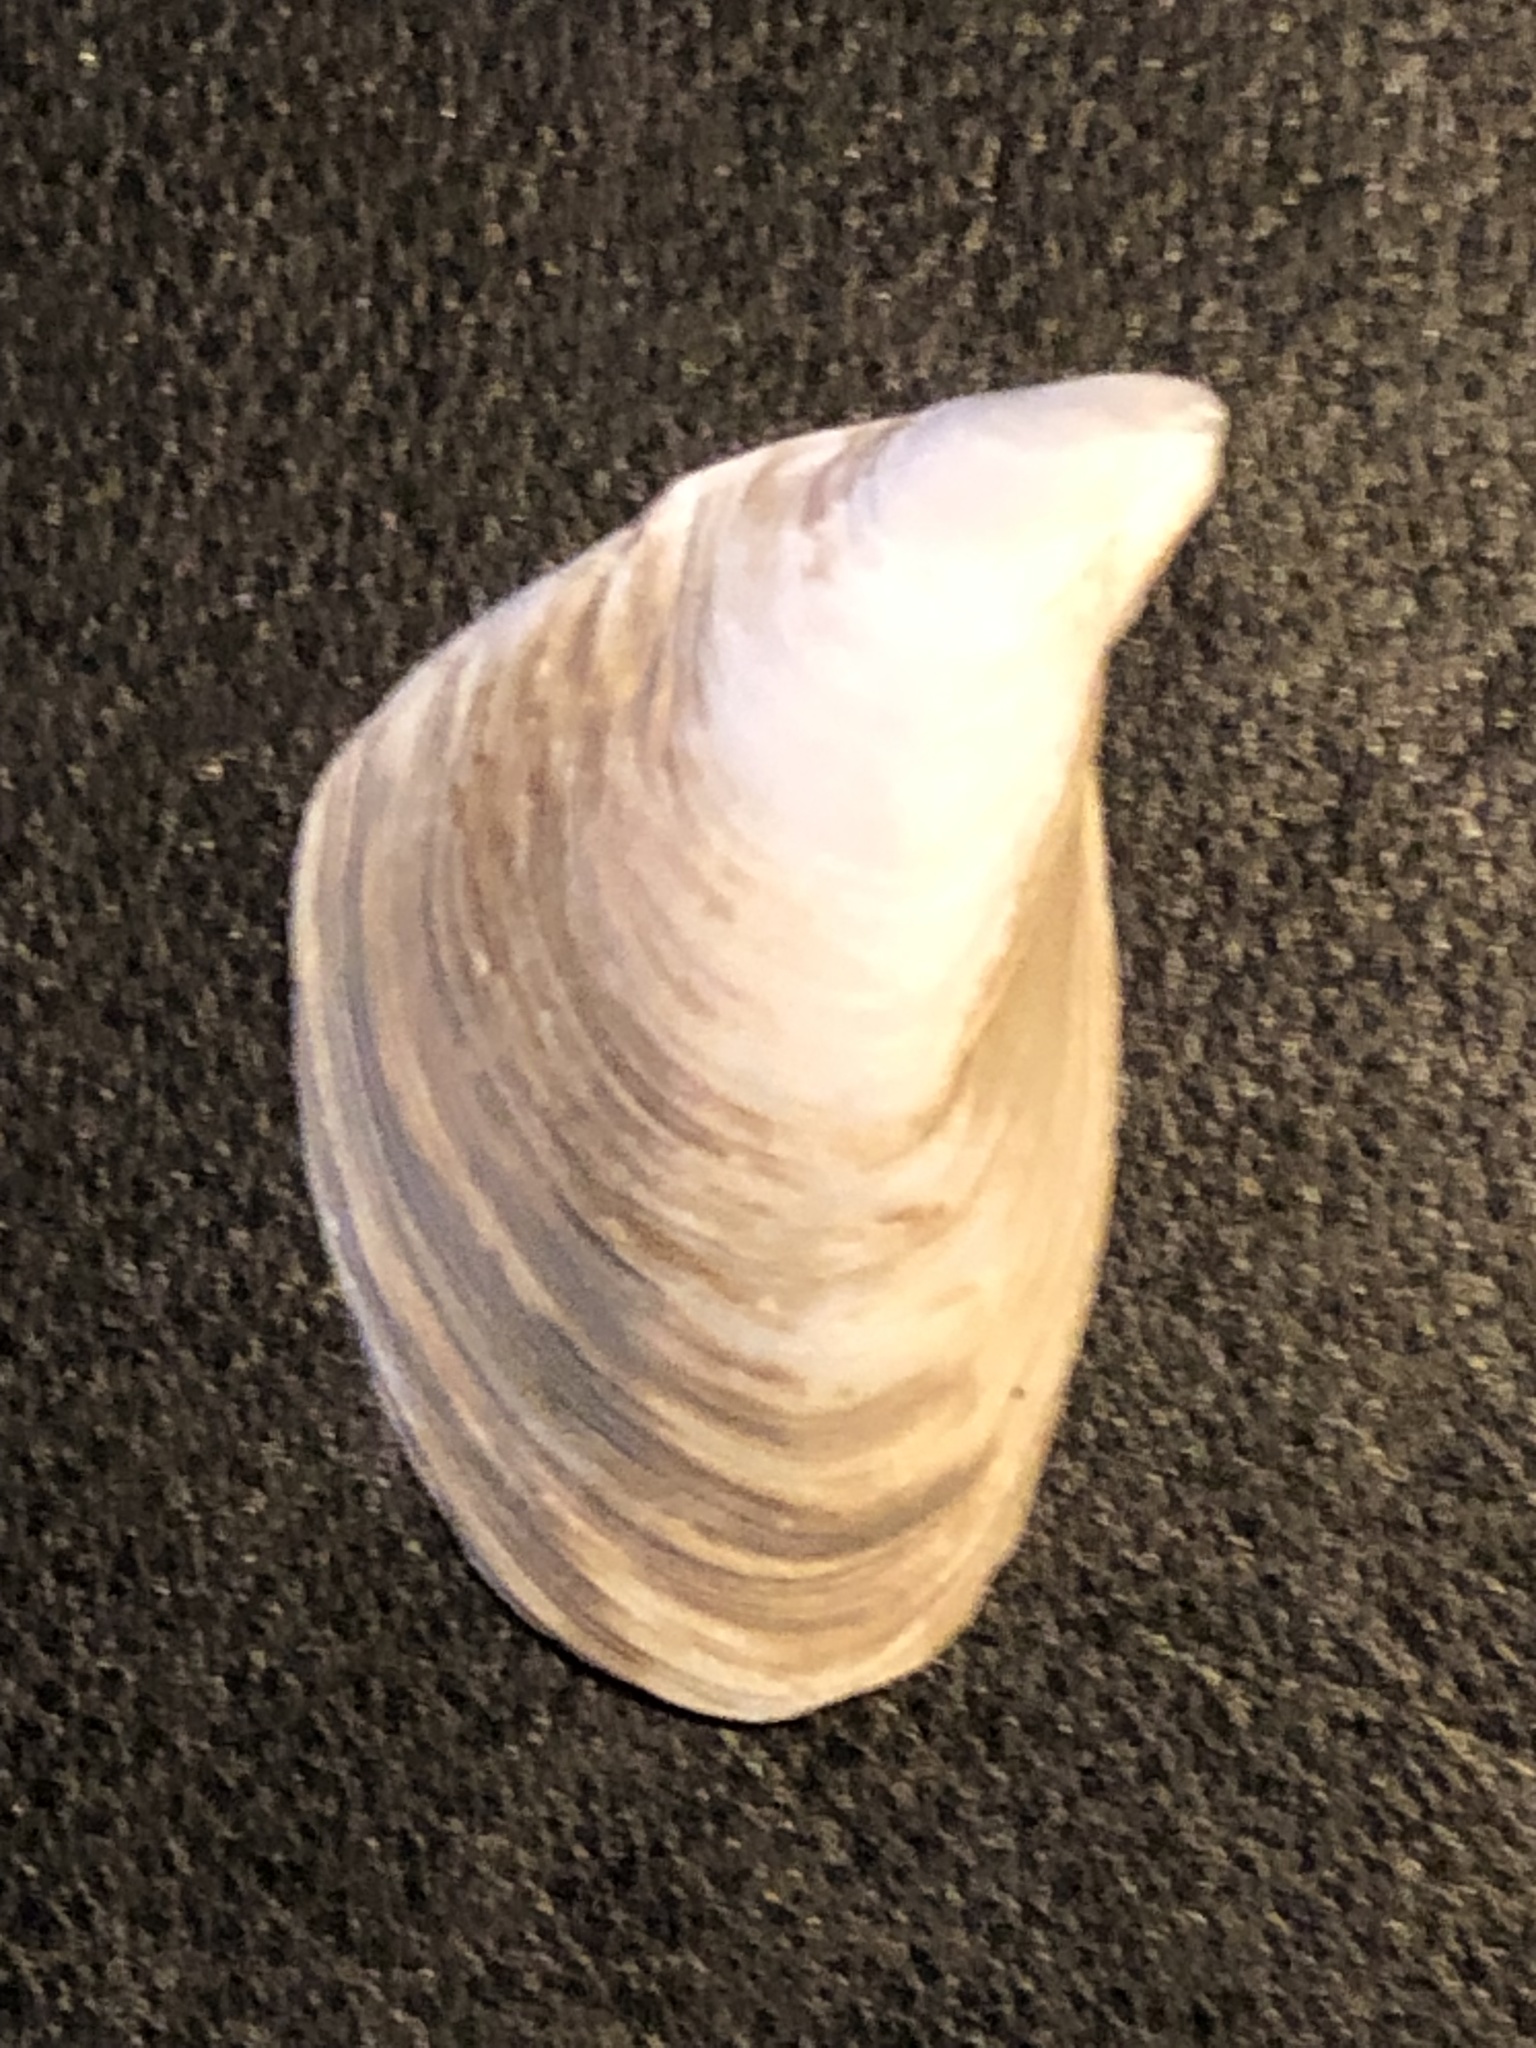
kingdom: Animalia
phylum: Mollusca
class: Bivalvia
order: Myida
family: Dreissenidae
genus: Dreissena
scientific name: Dreissena bugensis
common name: Quagga mussel
